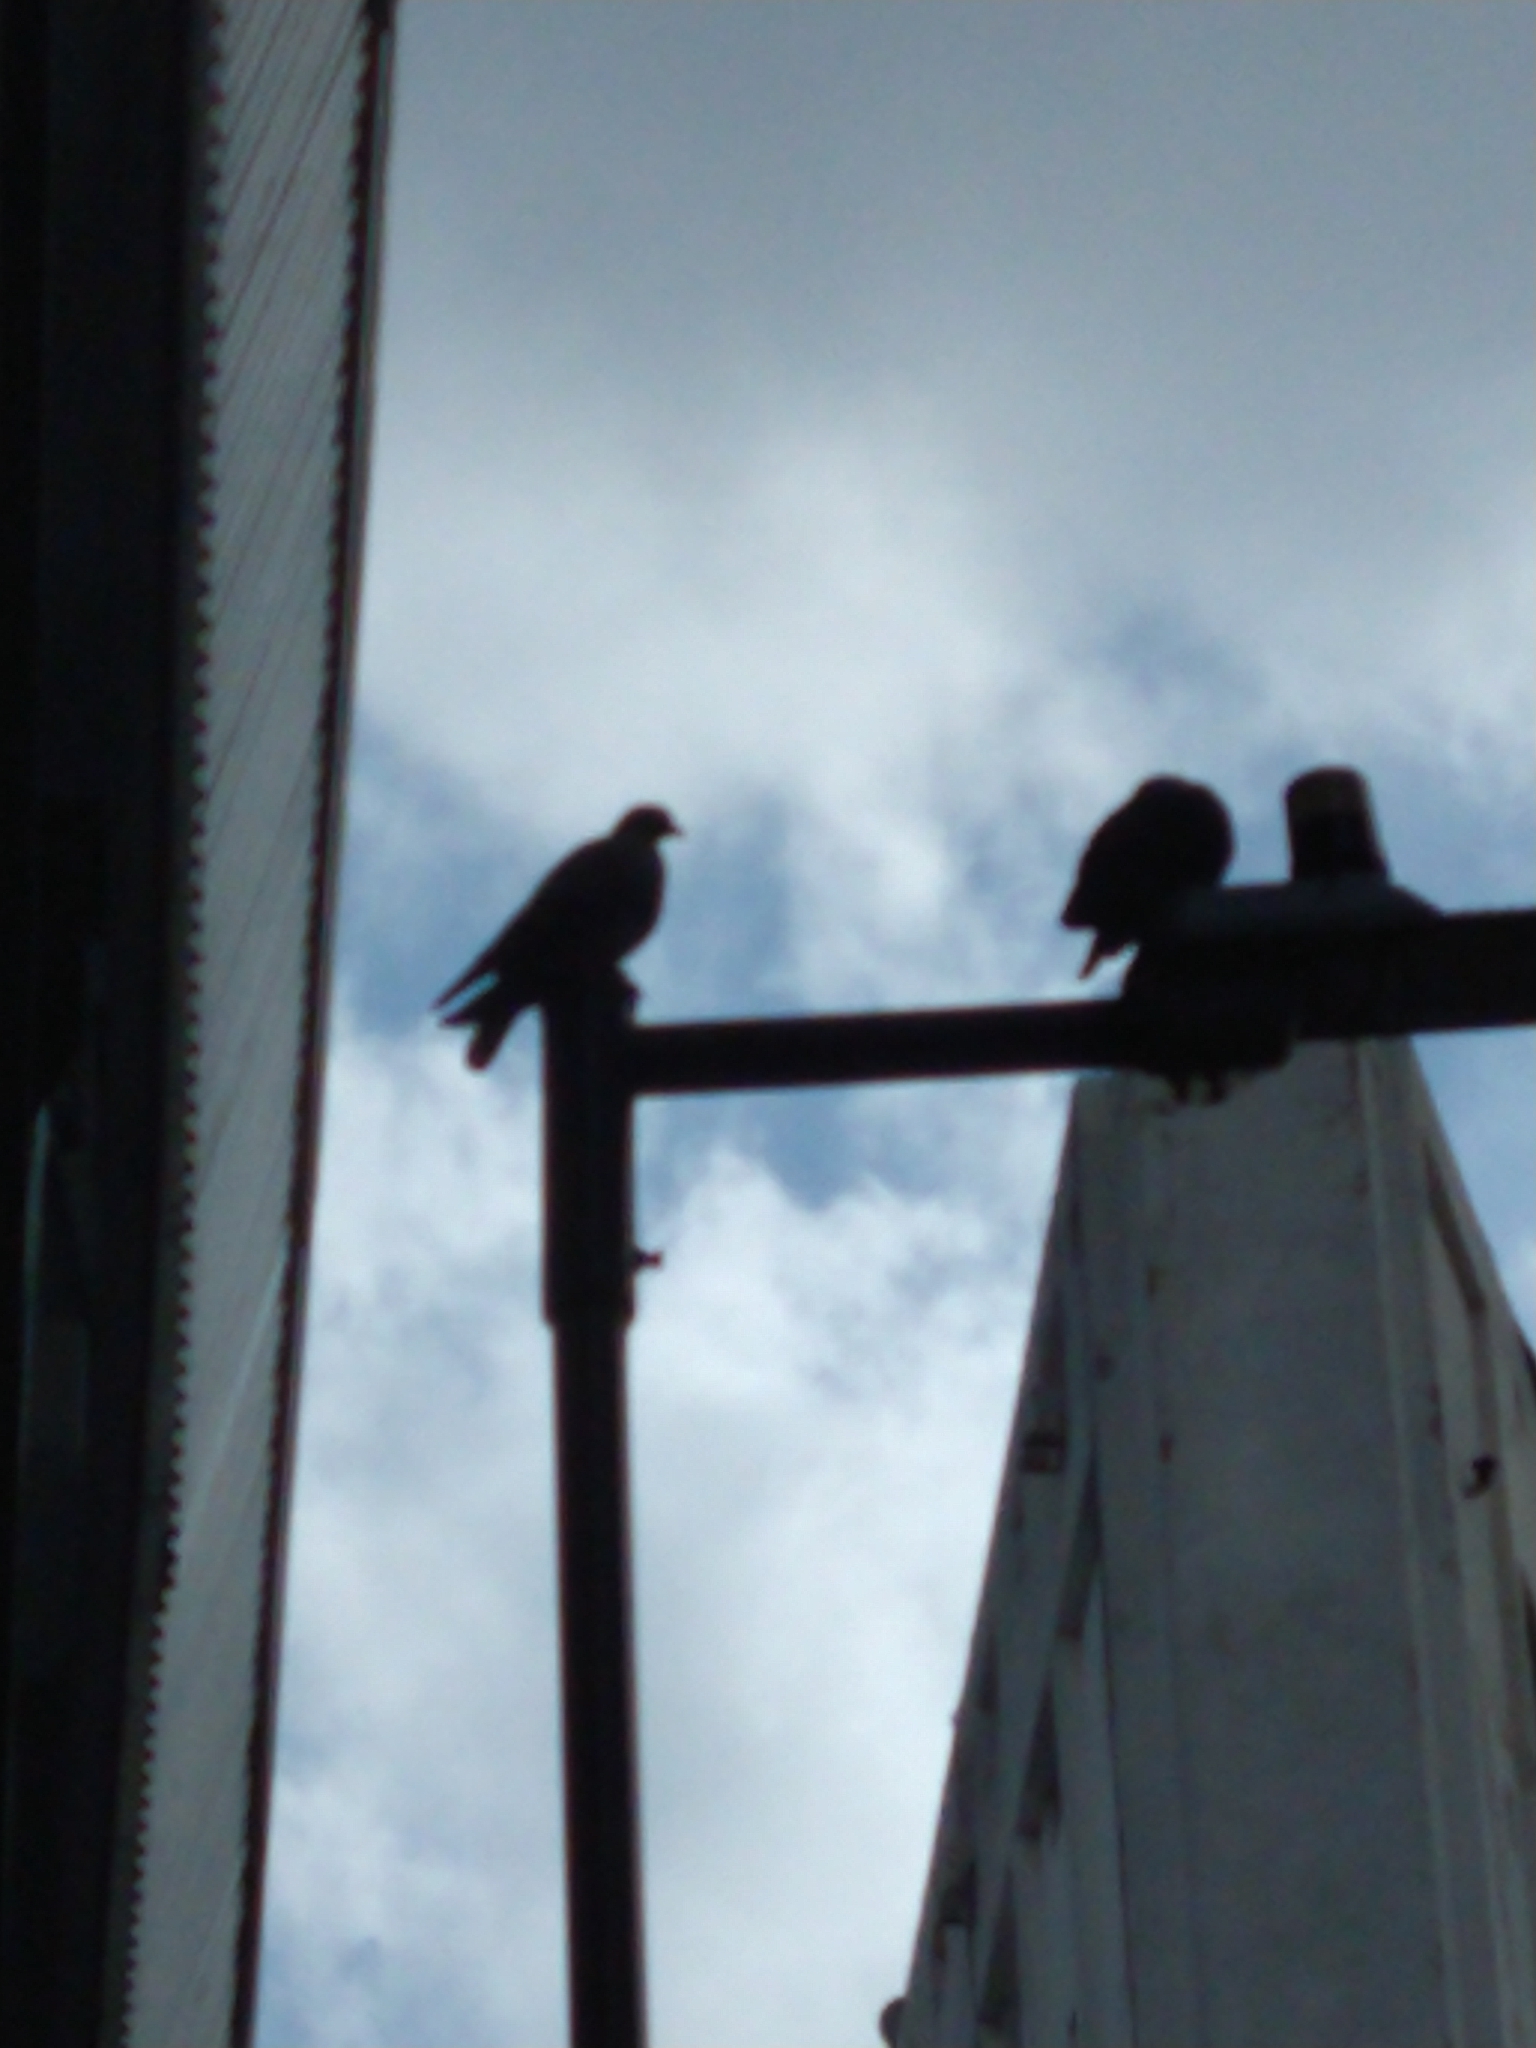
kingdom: Animalia
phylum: Chordata
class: Aves
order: Columbiformes
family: Columbidae
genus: Columba
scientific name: Columba livia
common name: Rock pigeon
